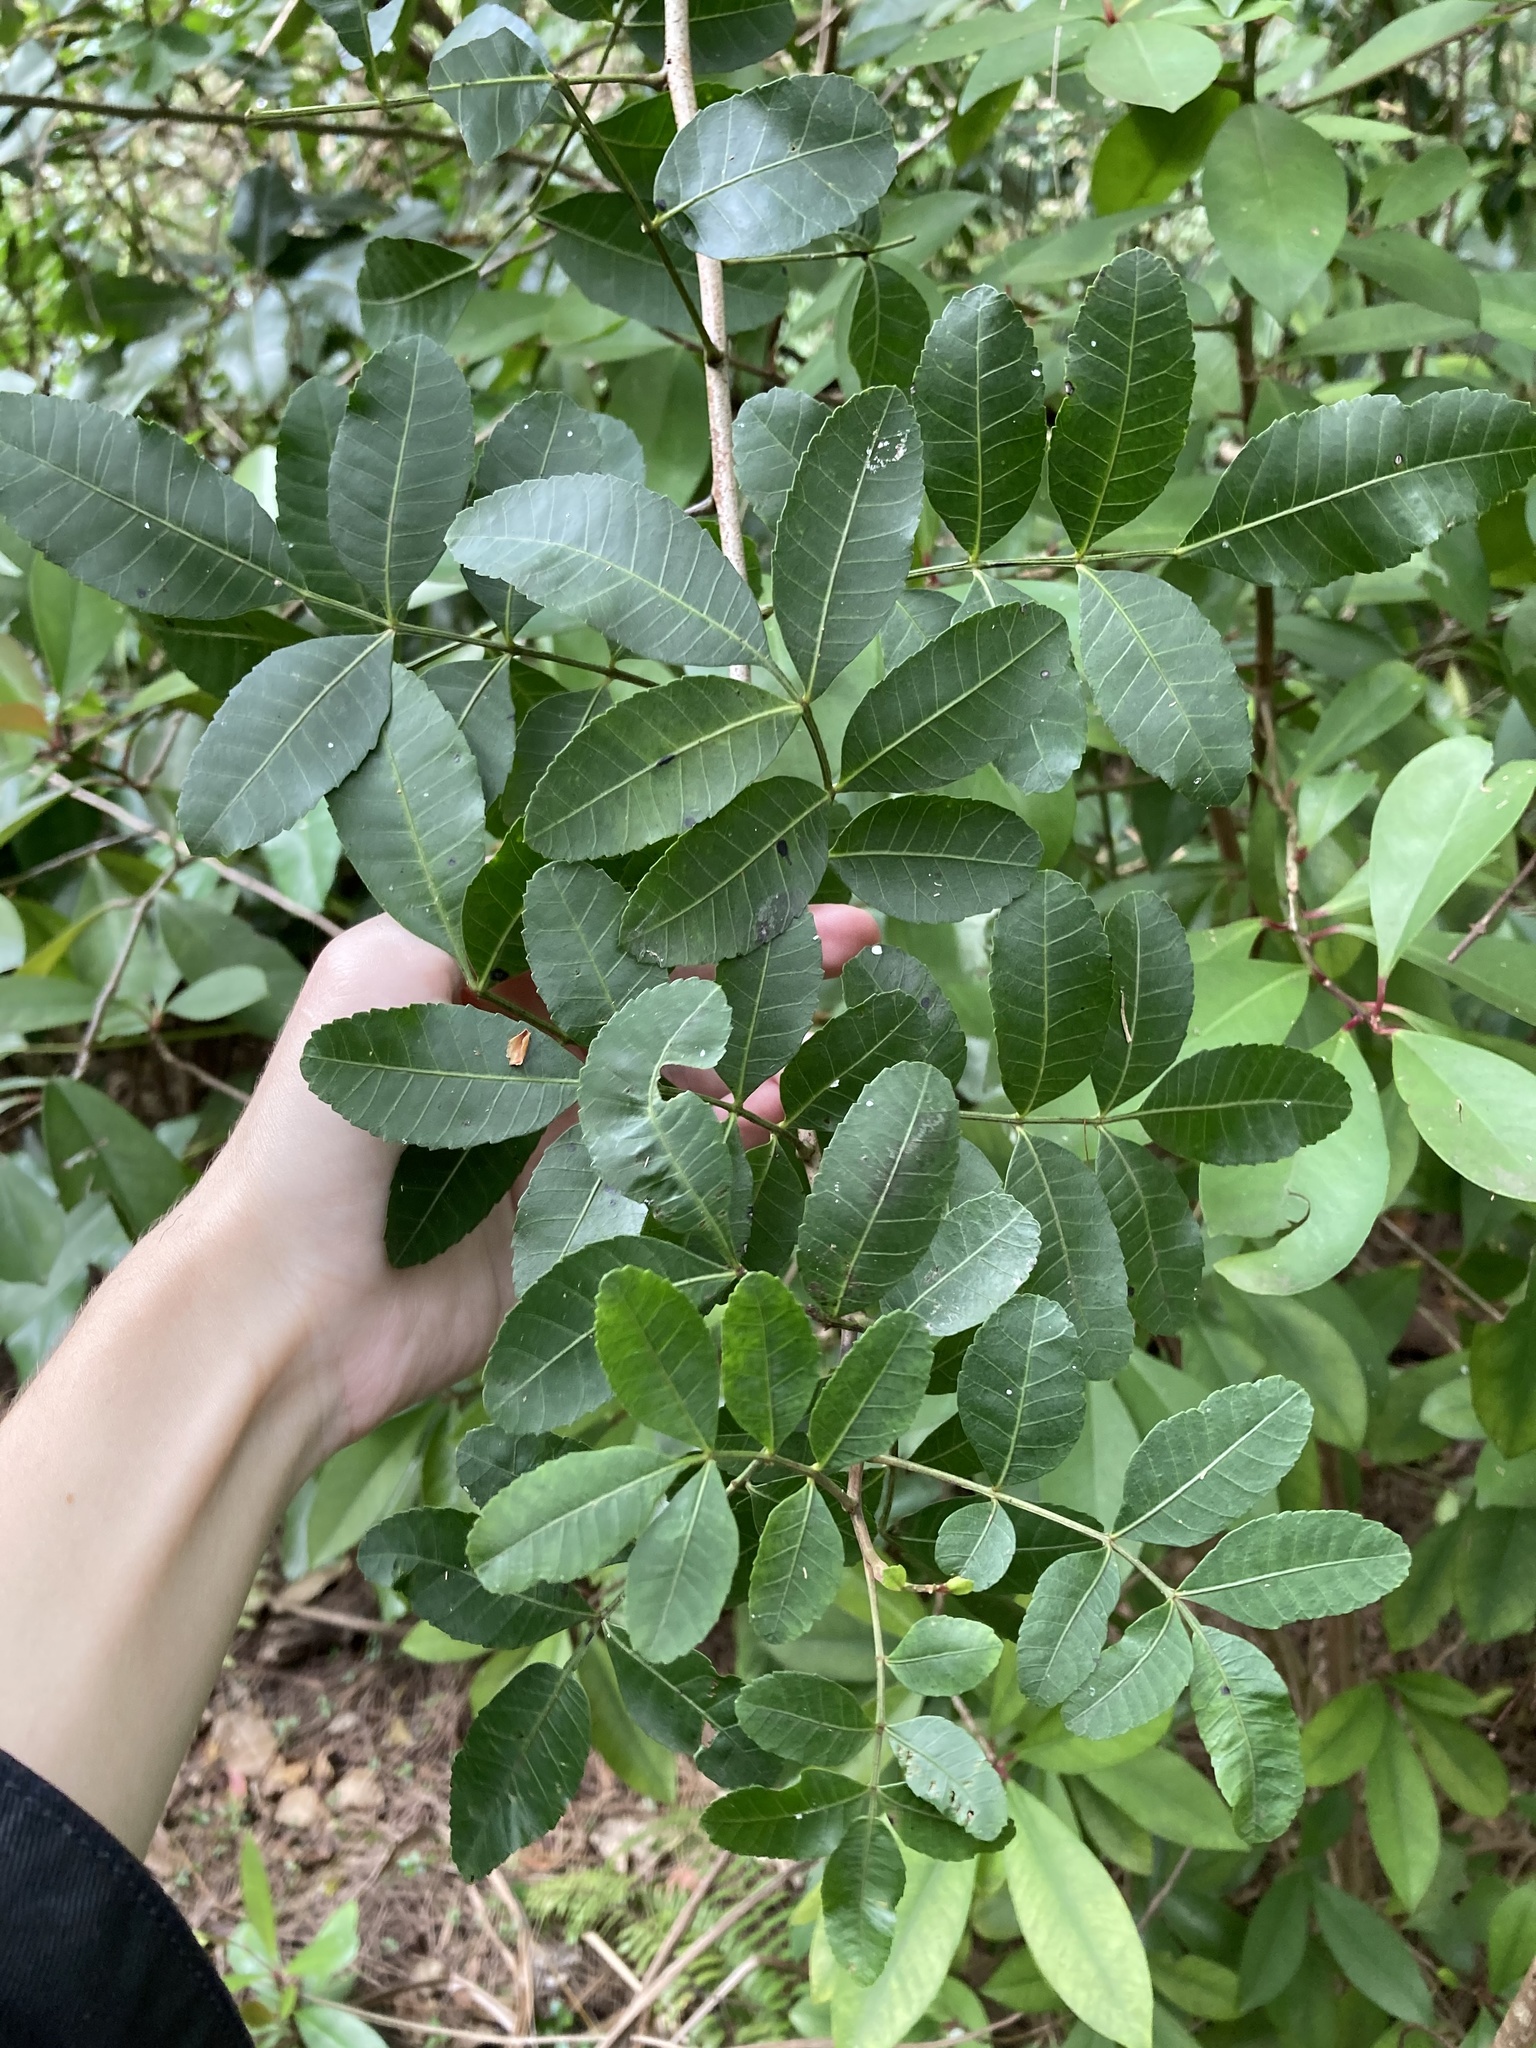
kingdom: Plantae
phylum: Tracheophyta
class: Magnoliopsida
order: Sapindales
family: Anacardiaceae
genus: Schinus
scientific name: Schinus terebinthifolia
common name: Brazilian peppertree
